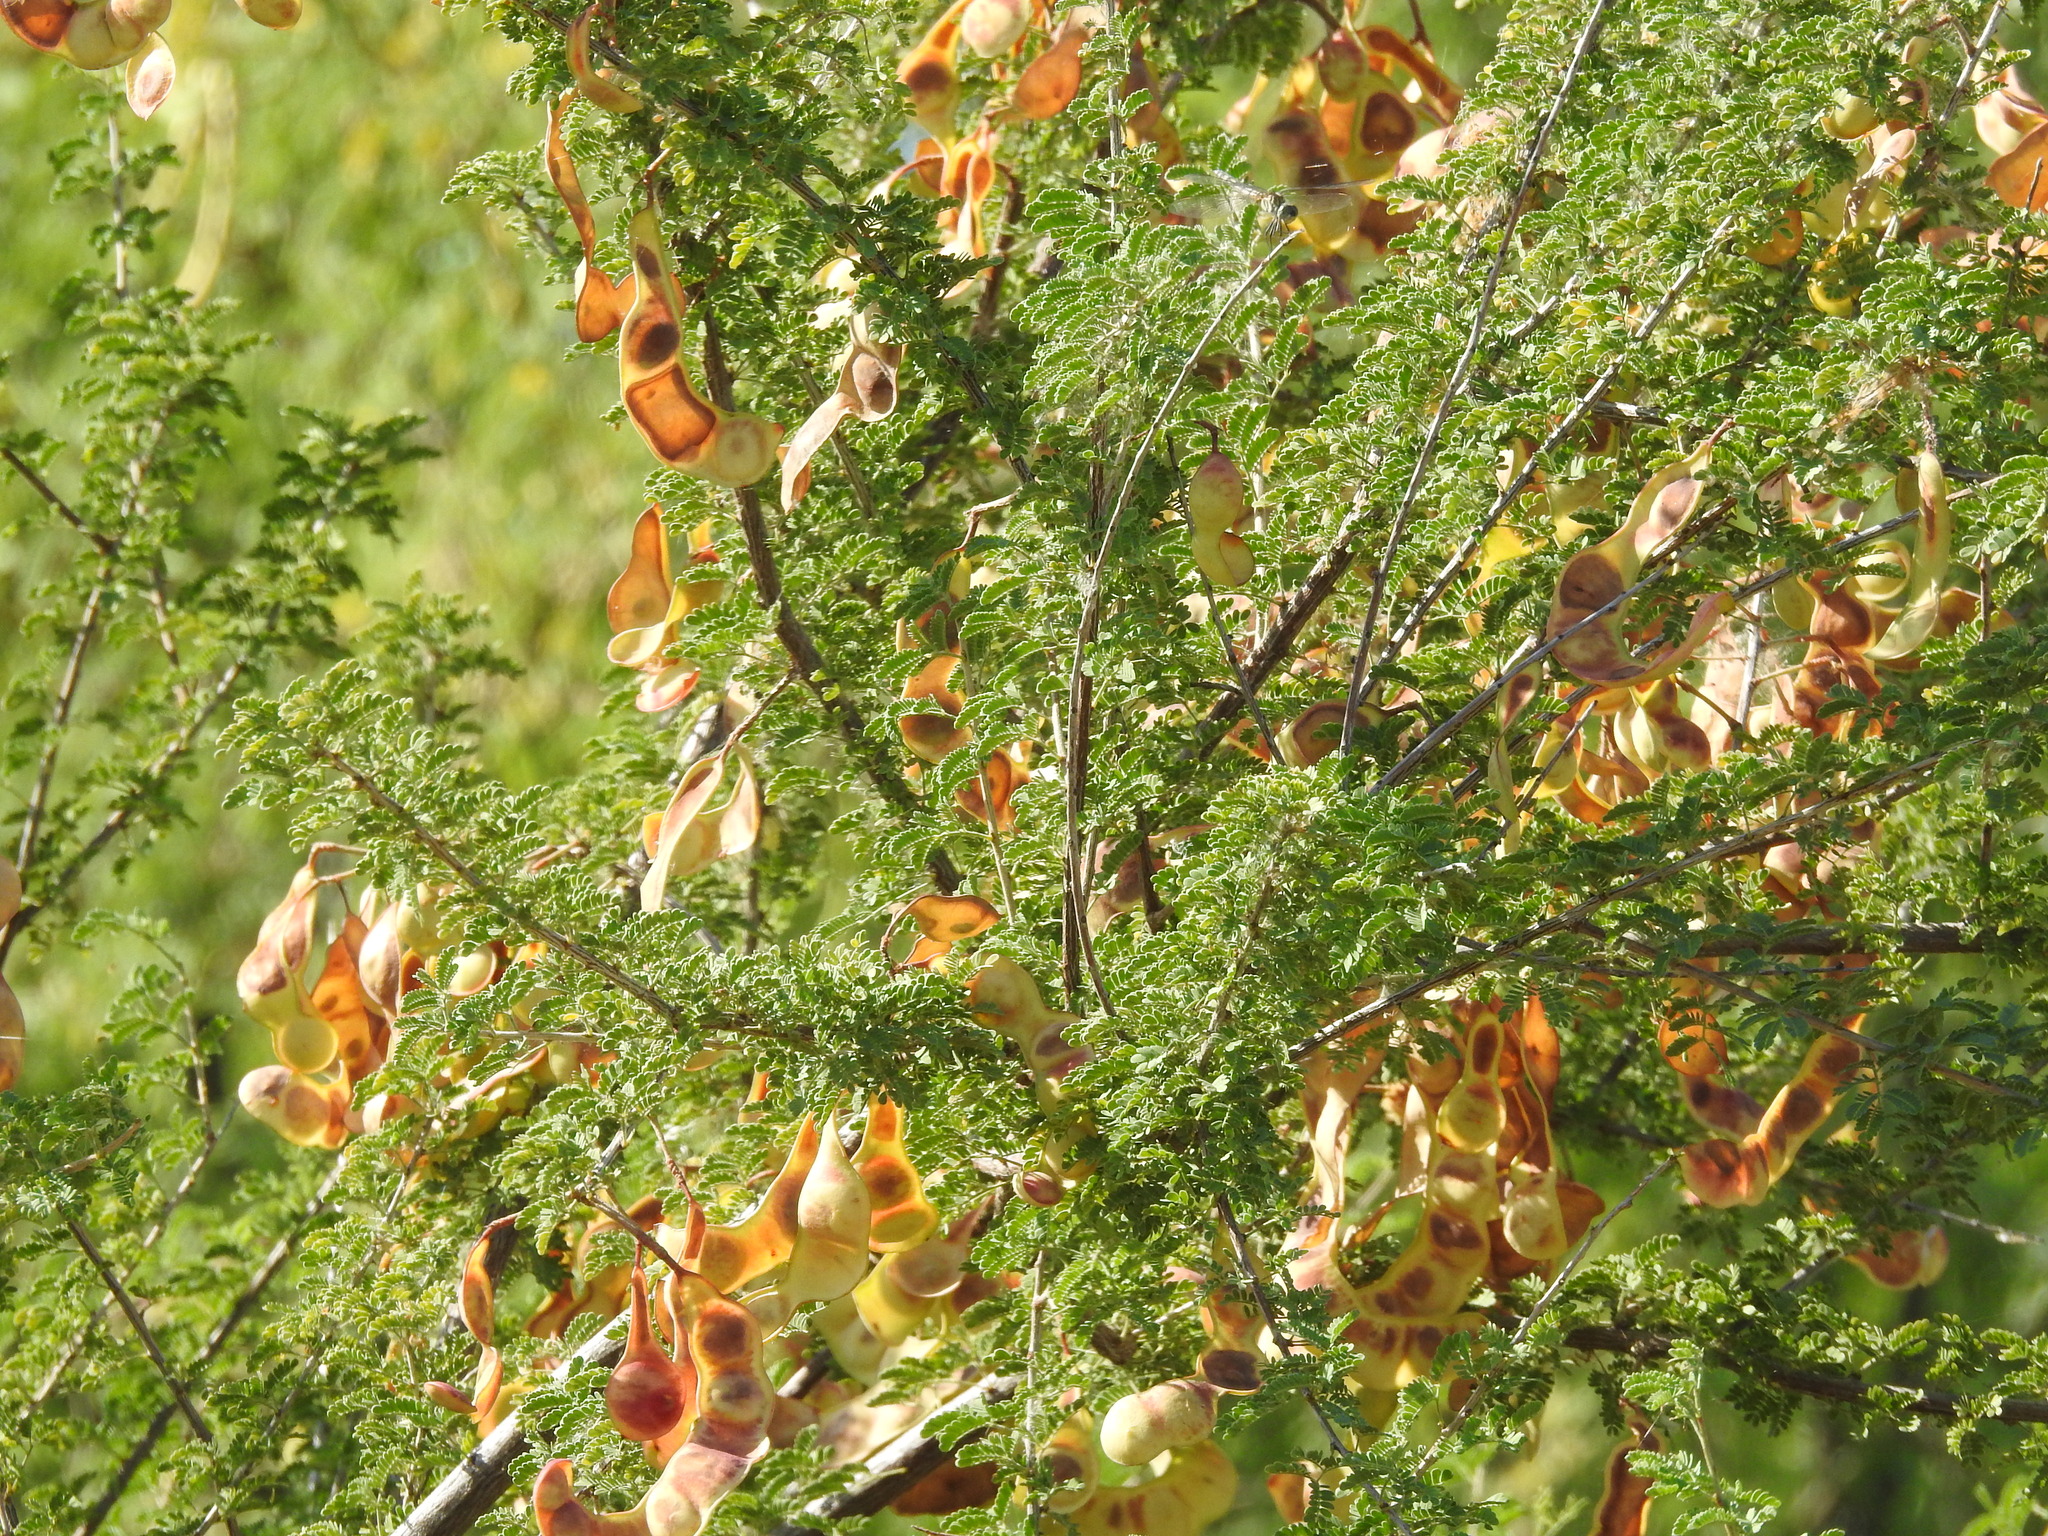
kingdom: Plantae
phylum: Tracheophyta
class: Magnoliopsida
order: Fabales
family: Fabaceae
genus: Senegalia
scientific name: Senegalia greggii
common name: Texas-mimosa
